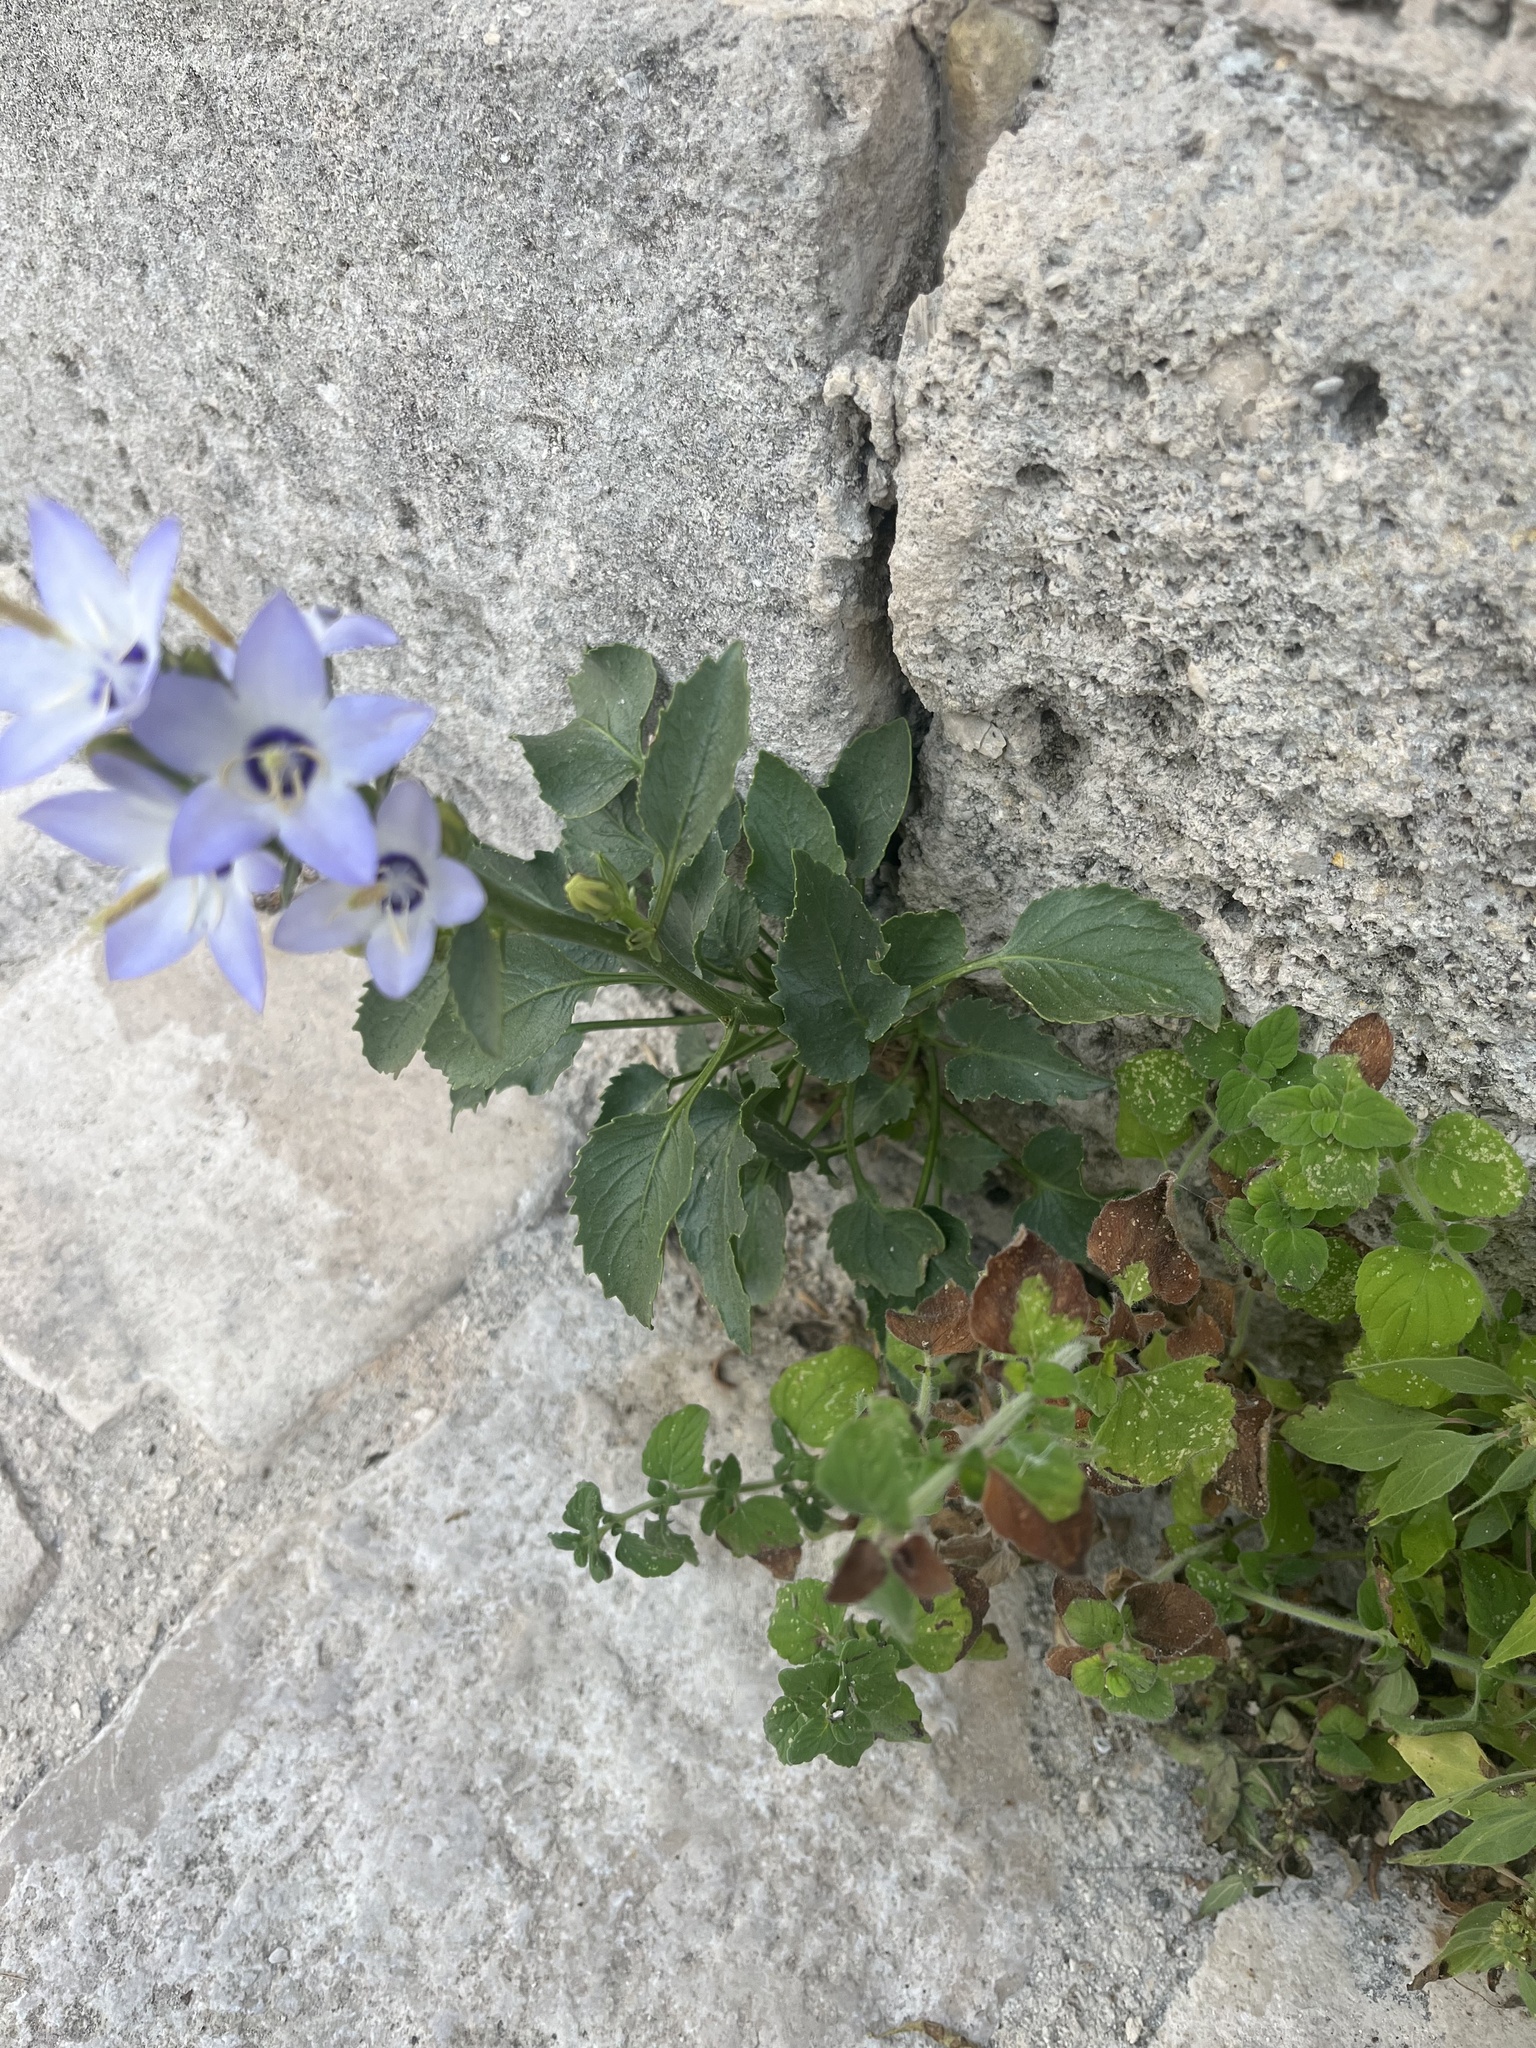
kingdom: Plantae
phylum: Tracheophyta
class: Magnoliopsida
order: Asterales
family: Campanulaceae
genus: Campanula
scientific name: Campanula versicolor
